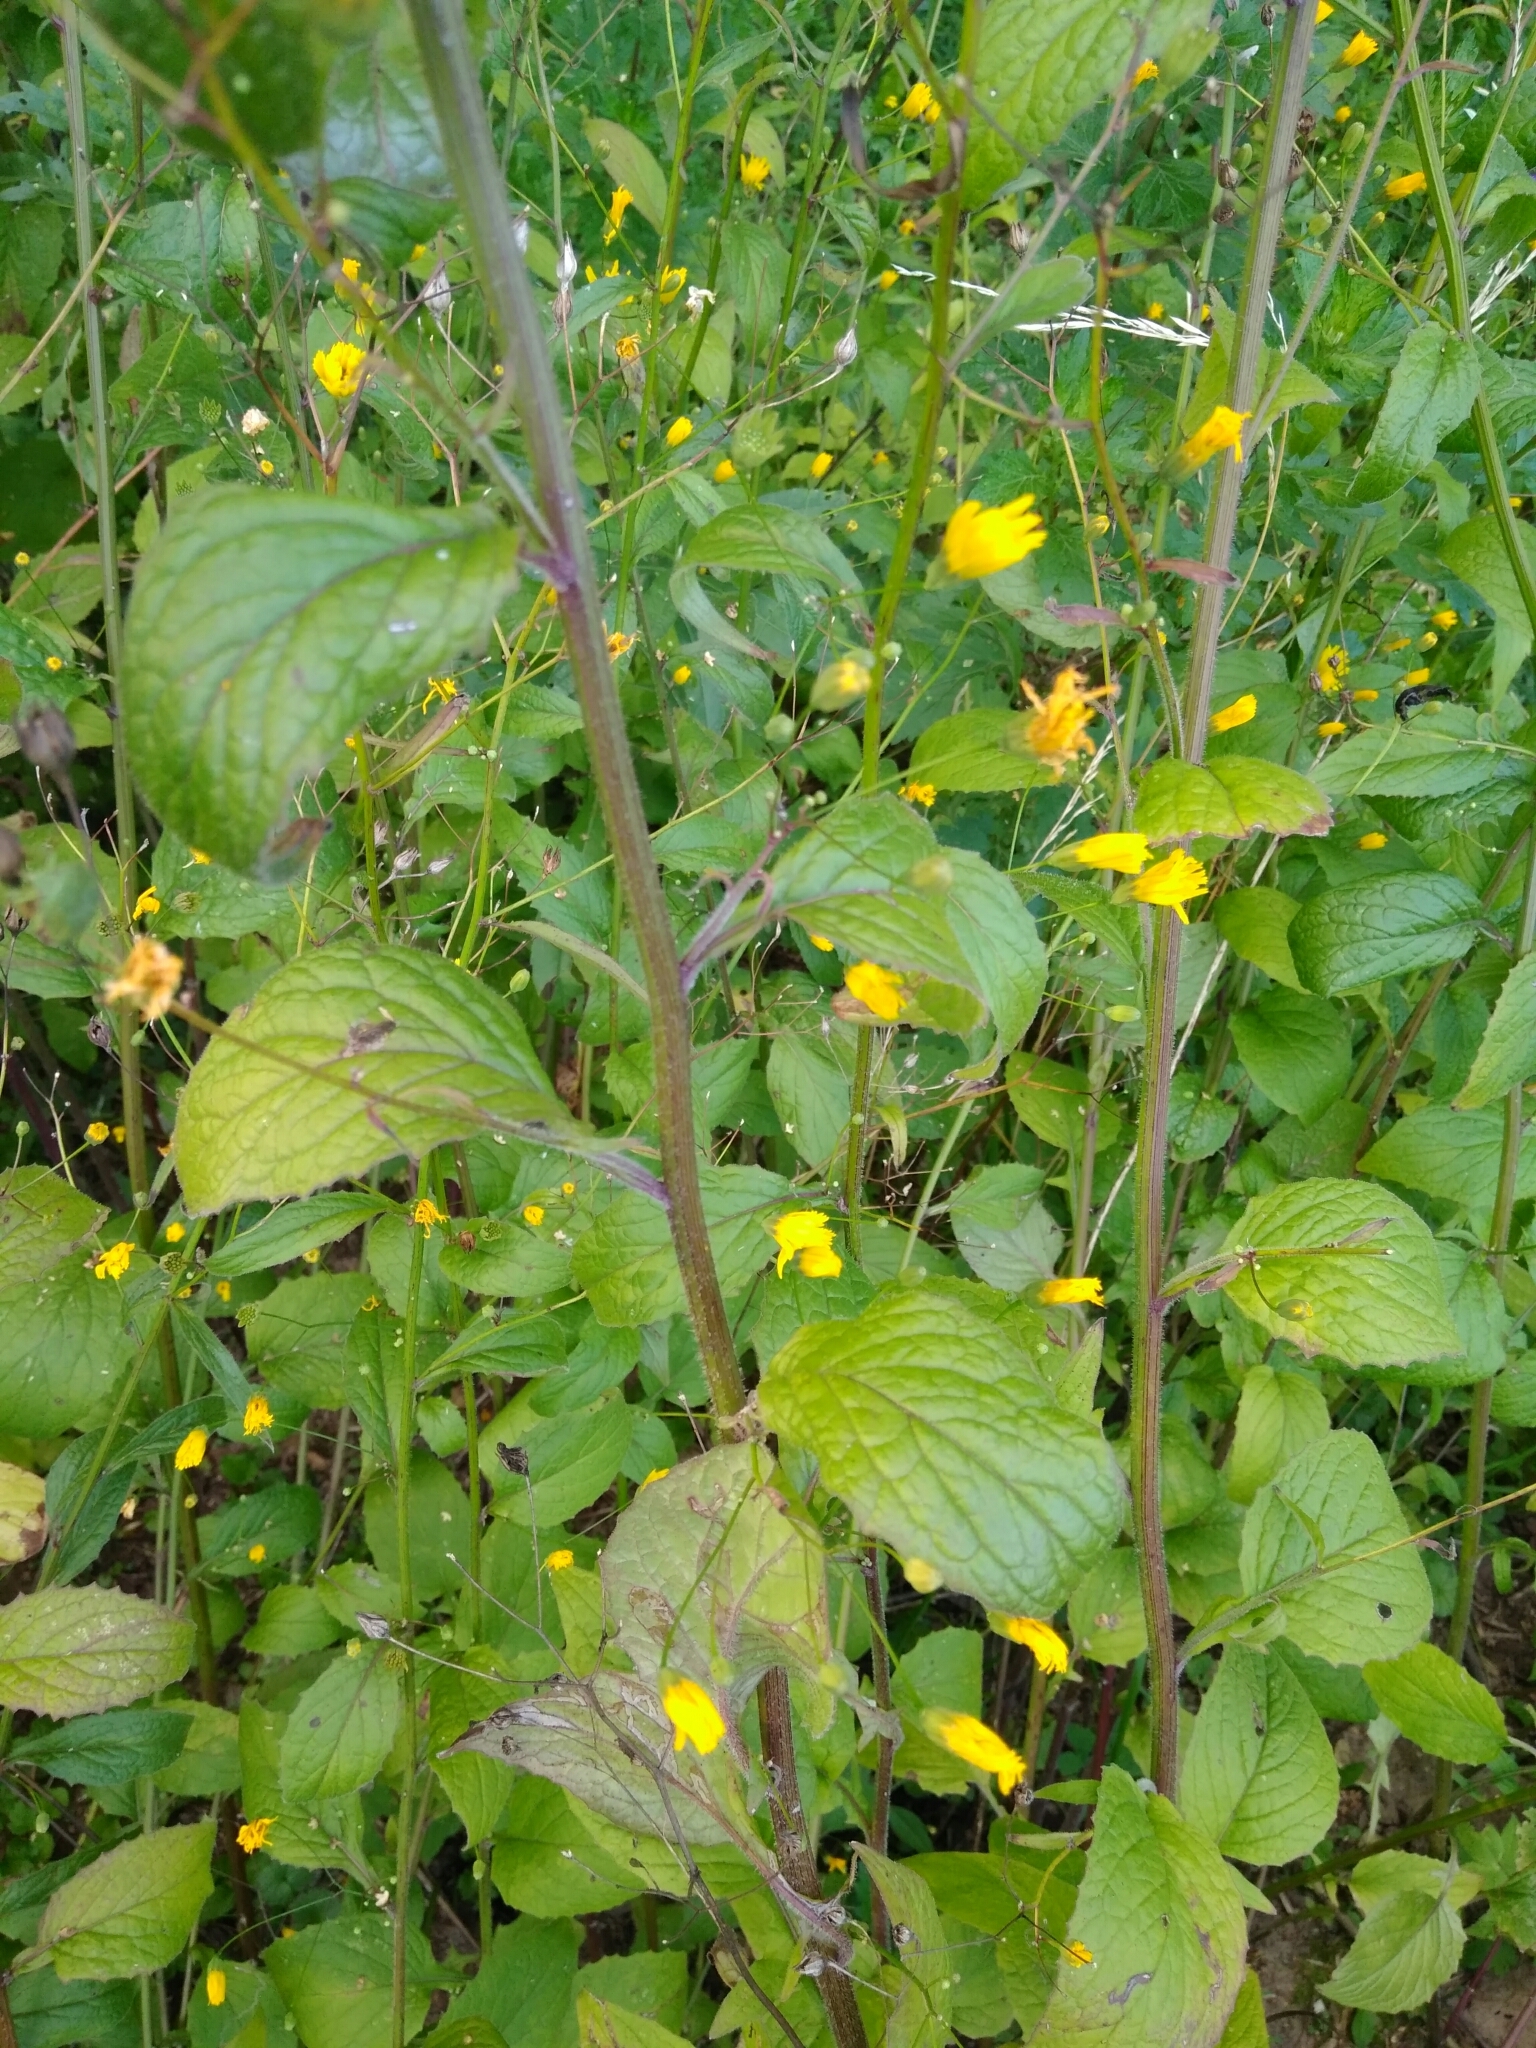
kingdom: Plantae
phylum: Tracheophyta
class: Magnoliopsida
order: Asterales
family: Asteraceae
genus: Lapsana
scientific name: Lapsana communis
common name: Nipplewort
